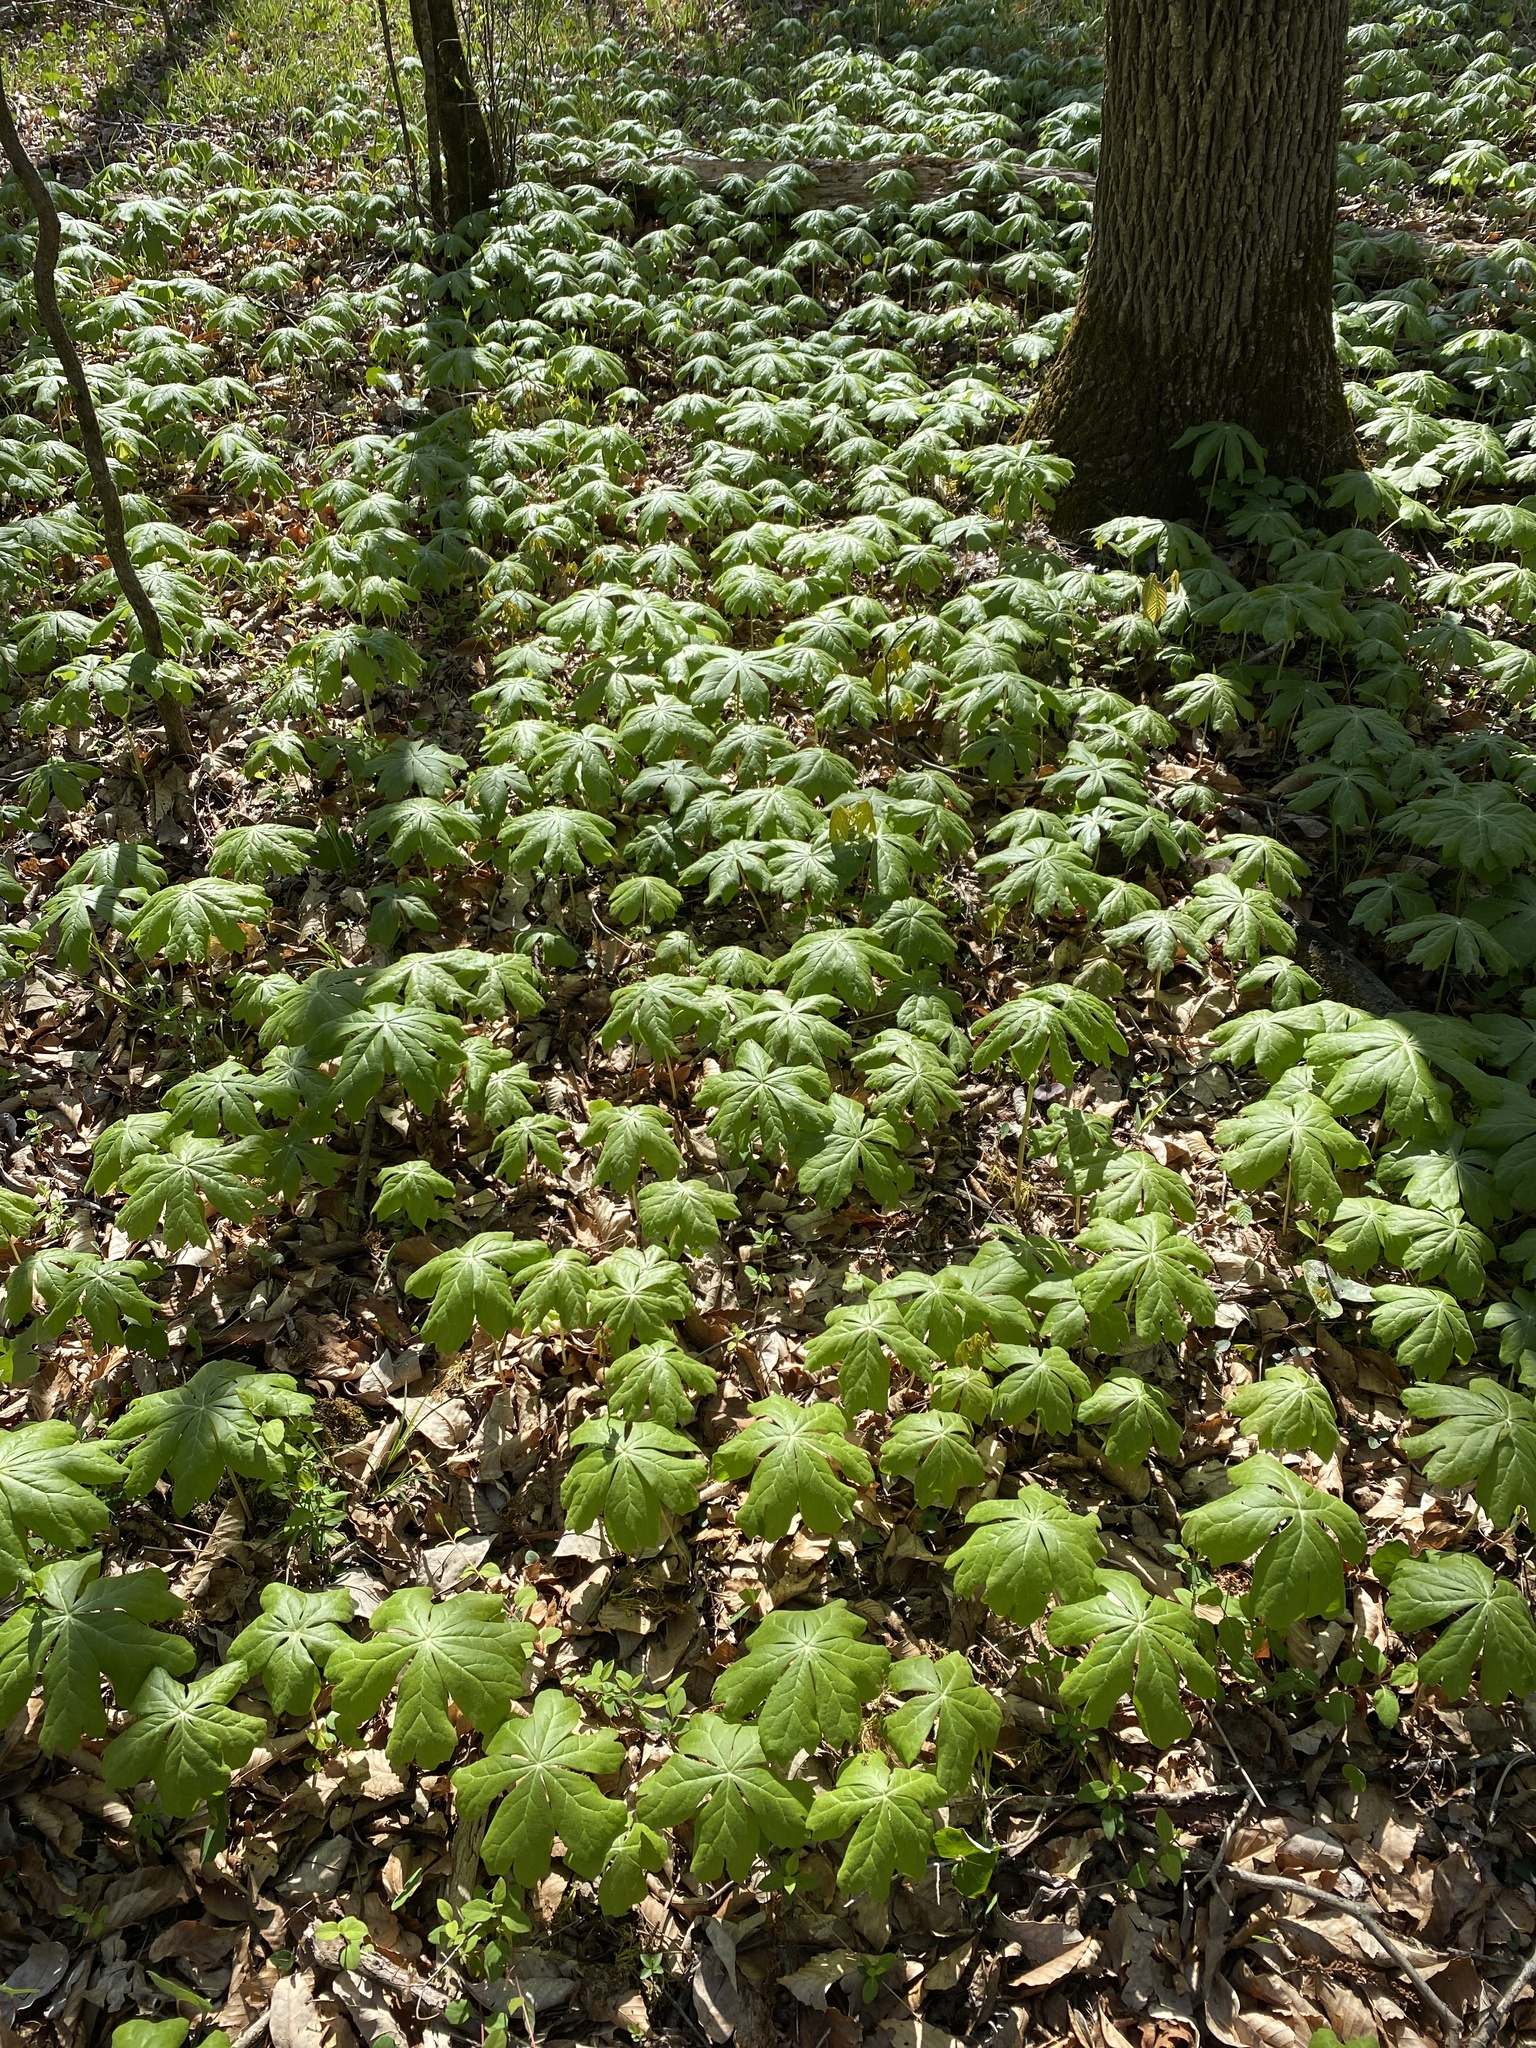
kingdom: Plantae
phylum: Tracheophyta
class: Magnoliopsida
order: Ranunculales
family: Berberidaceae
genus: Podophyllum
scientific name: Podophyllum peltatum
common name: Wild mandrake
